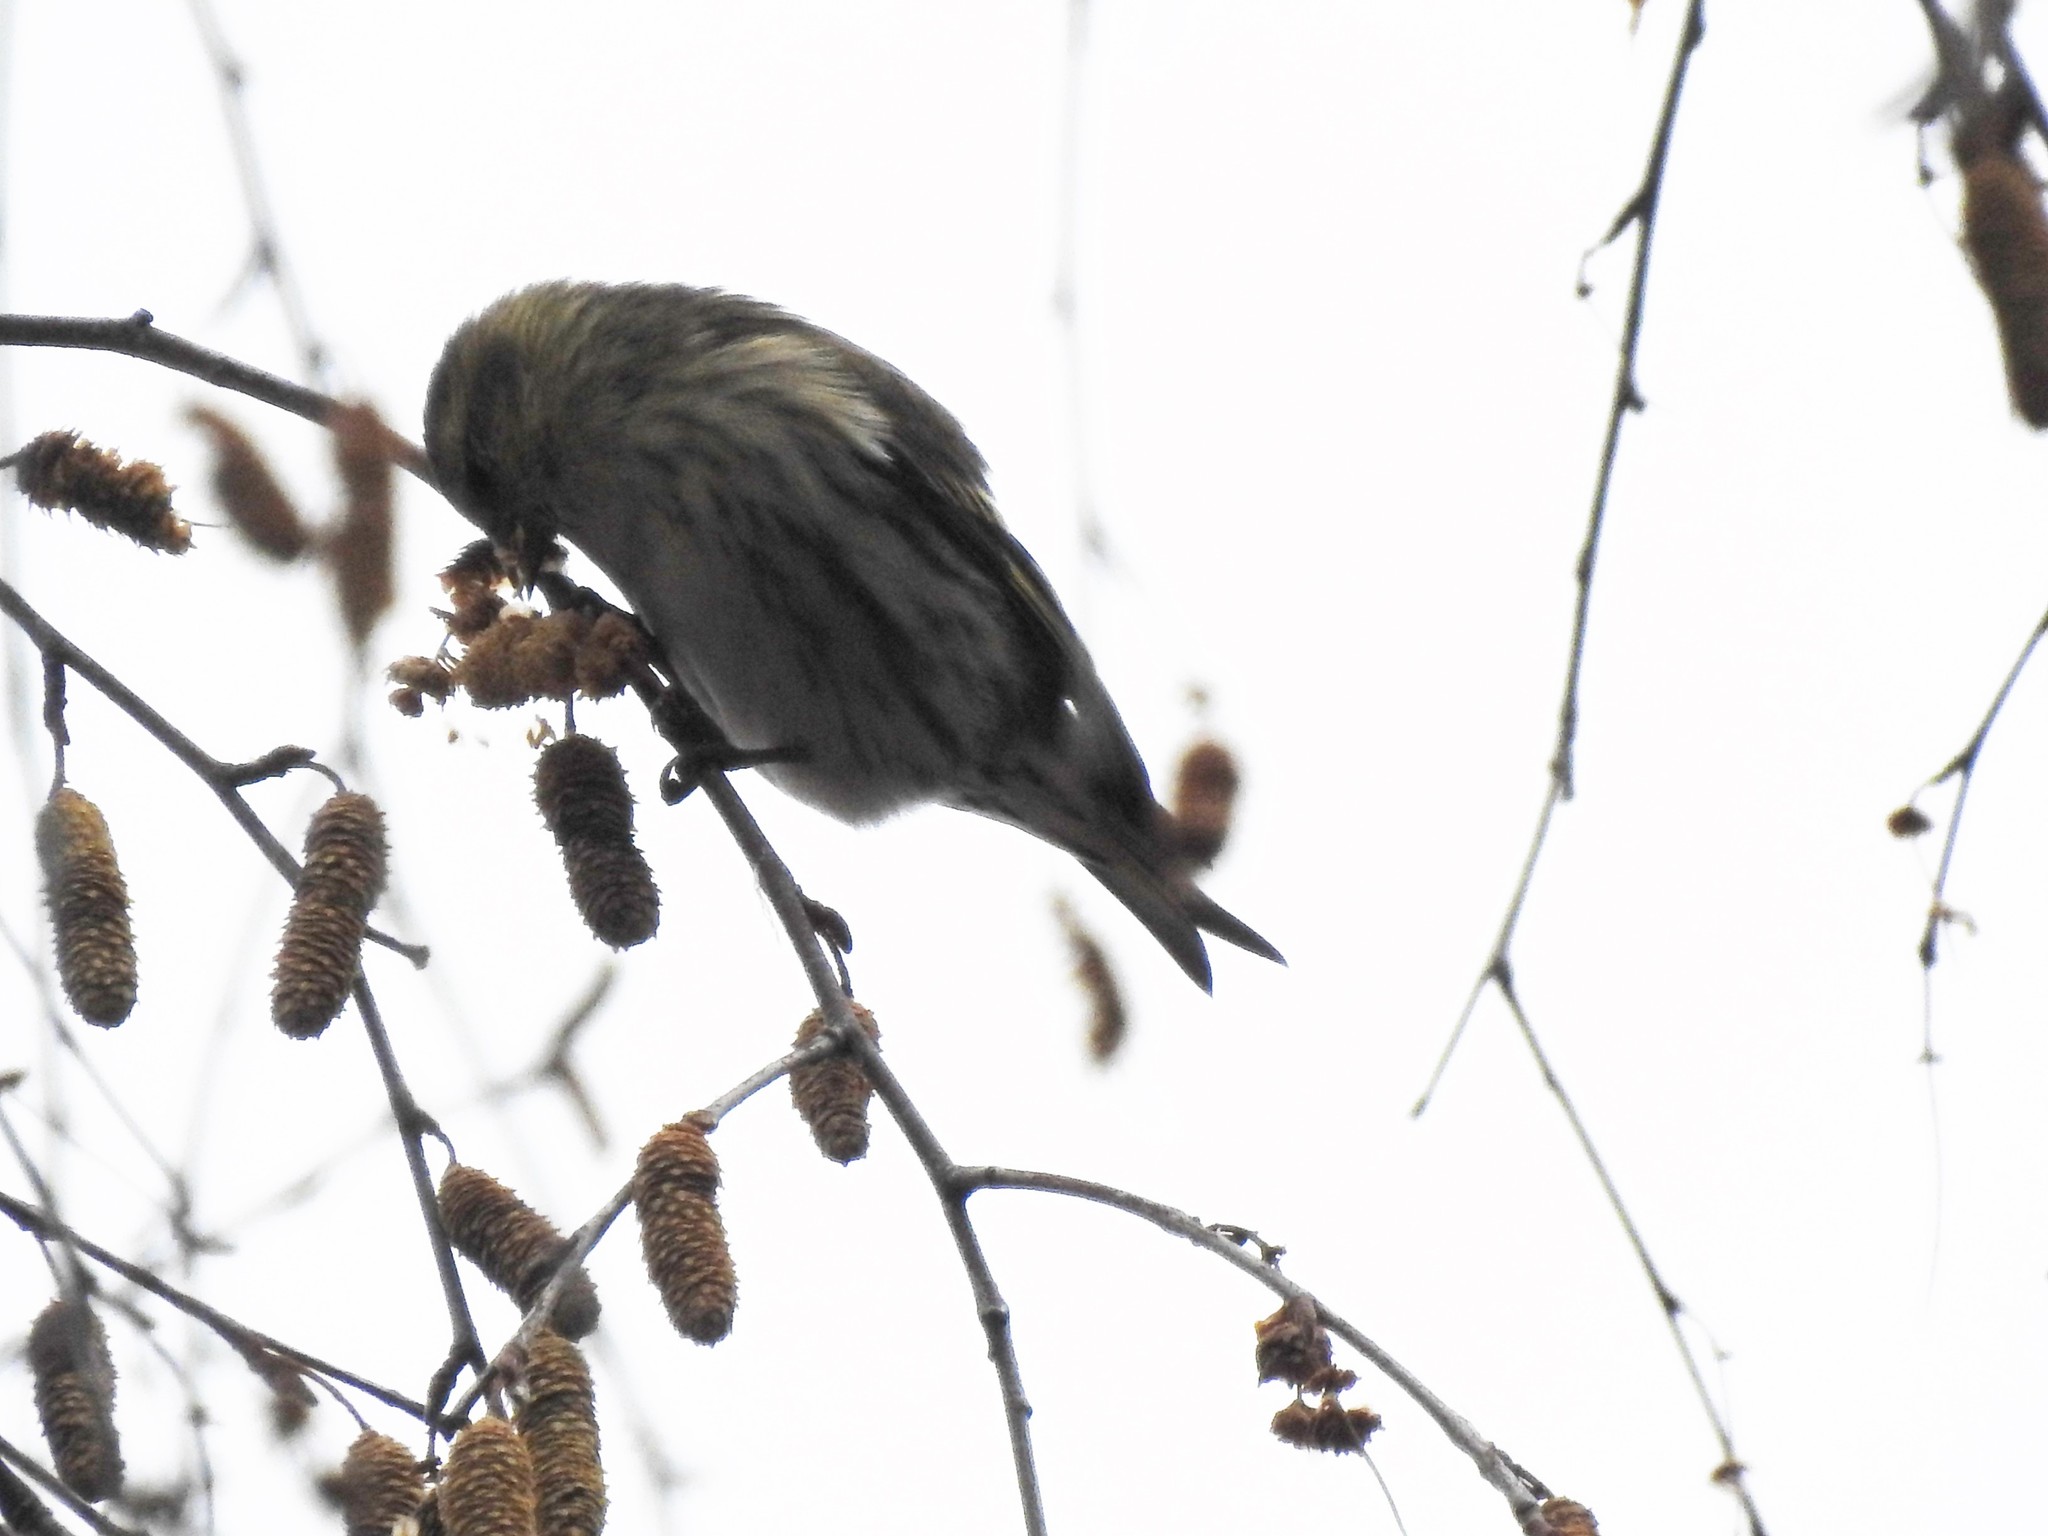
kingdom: Animalia
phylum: Chordata
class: Aves
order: Passeriformes
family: Fringillidae
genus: Acanthis
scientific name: Acanthis flammea
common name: Common redpoll
